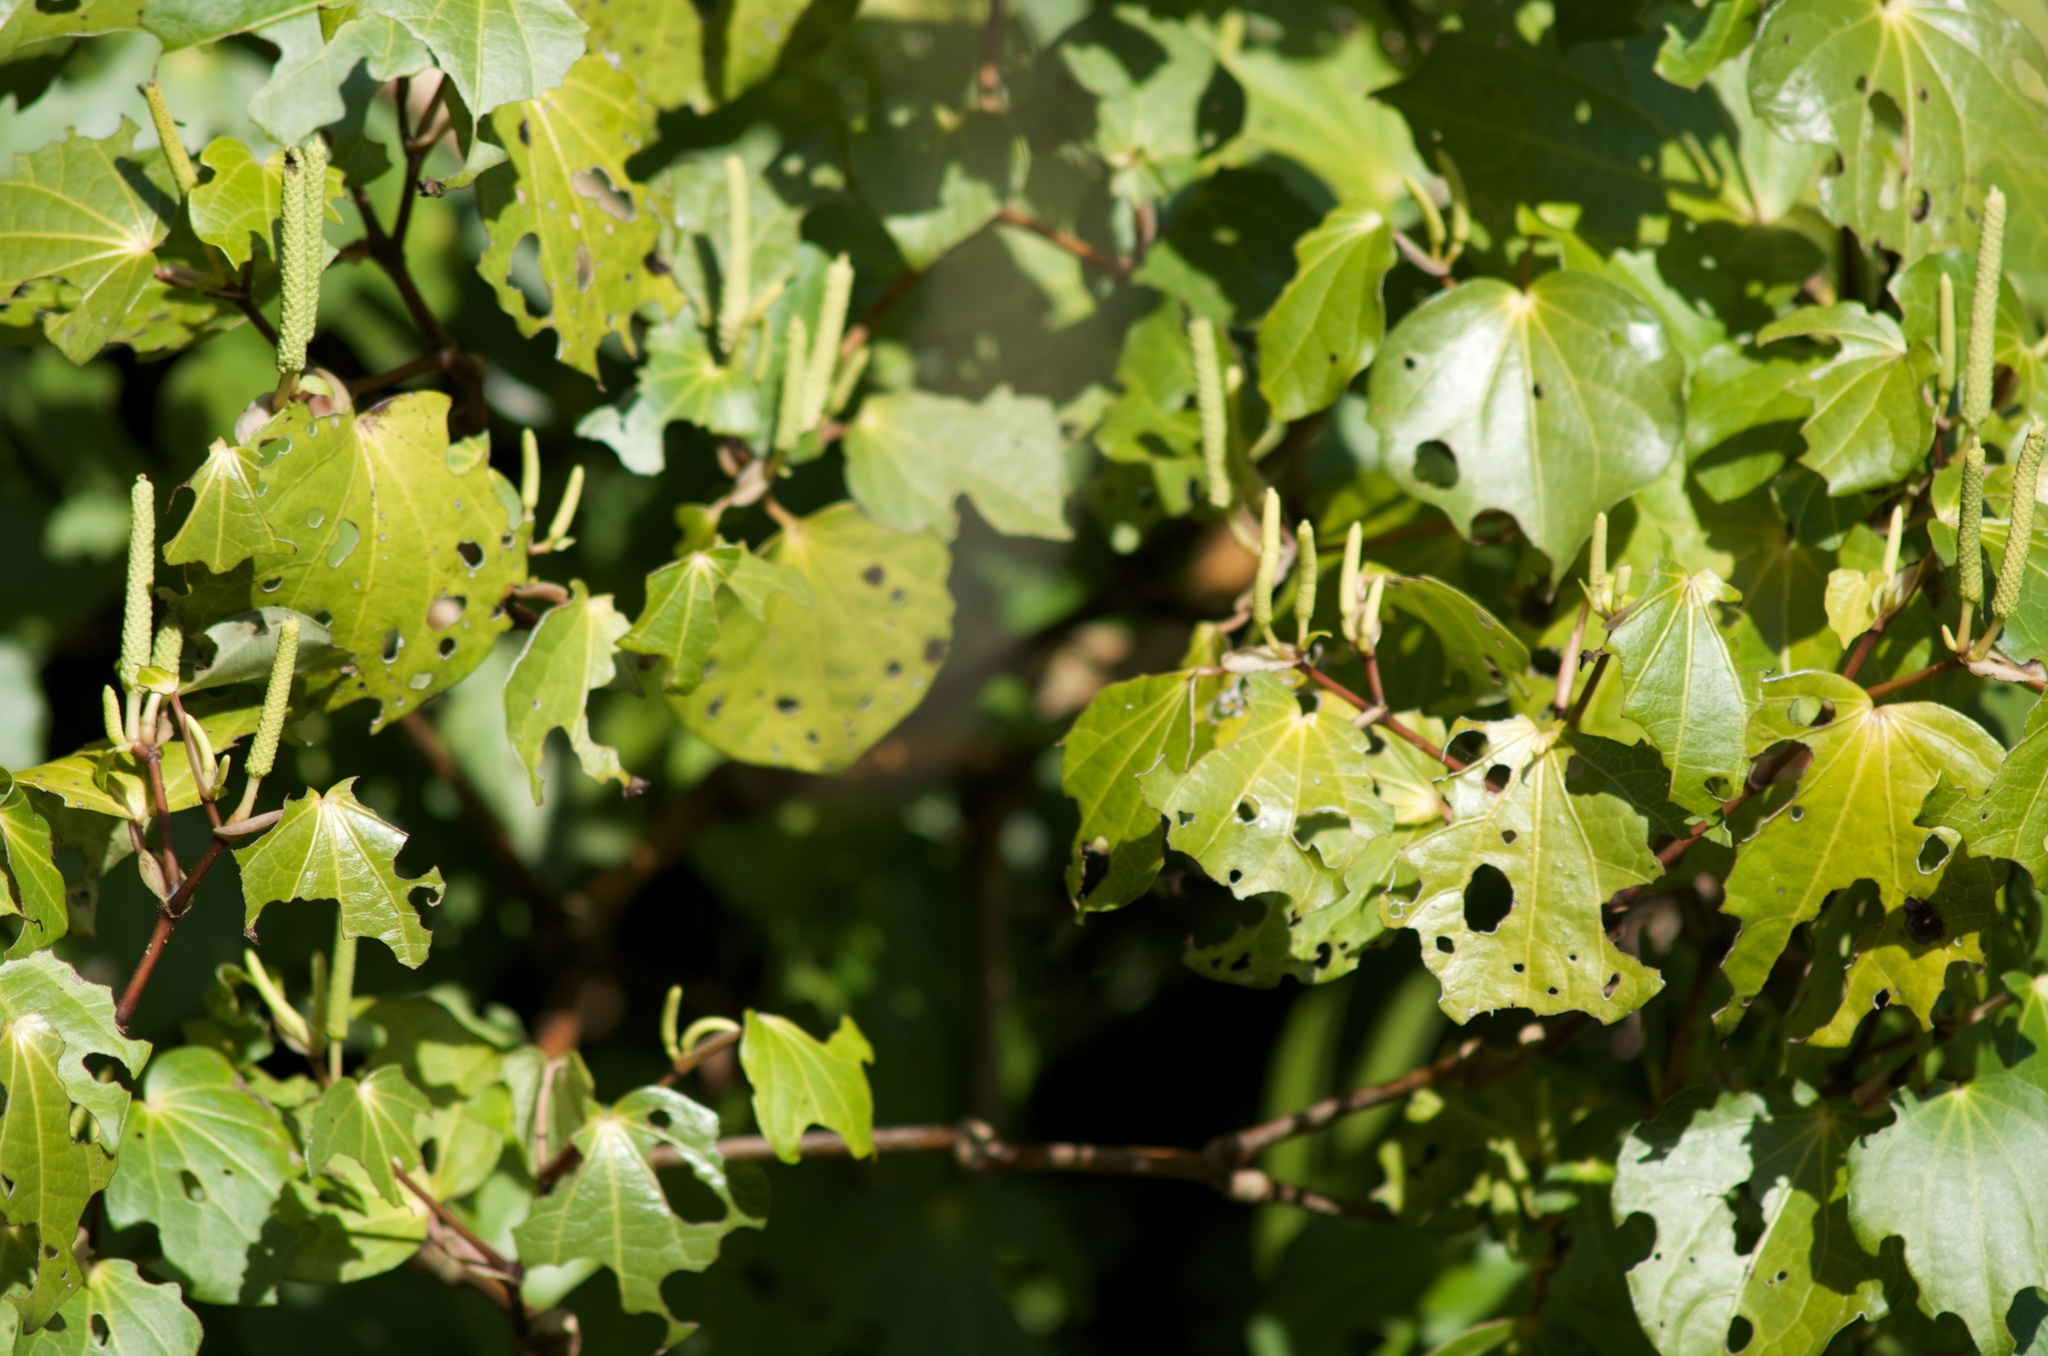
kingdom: Plantae
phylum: Tracheophyta
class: Magnoliopsida
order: Piperales
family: Piperaceae
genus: Macropiper
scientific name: Macropiper excelsum
